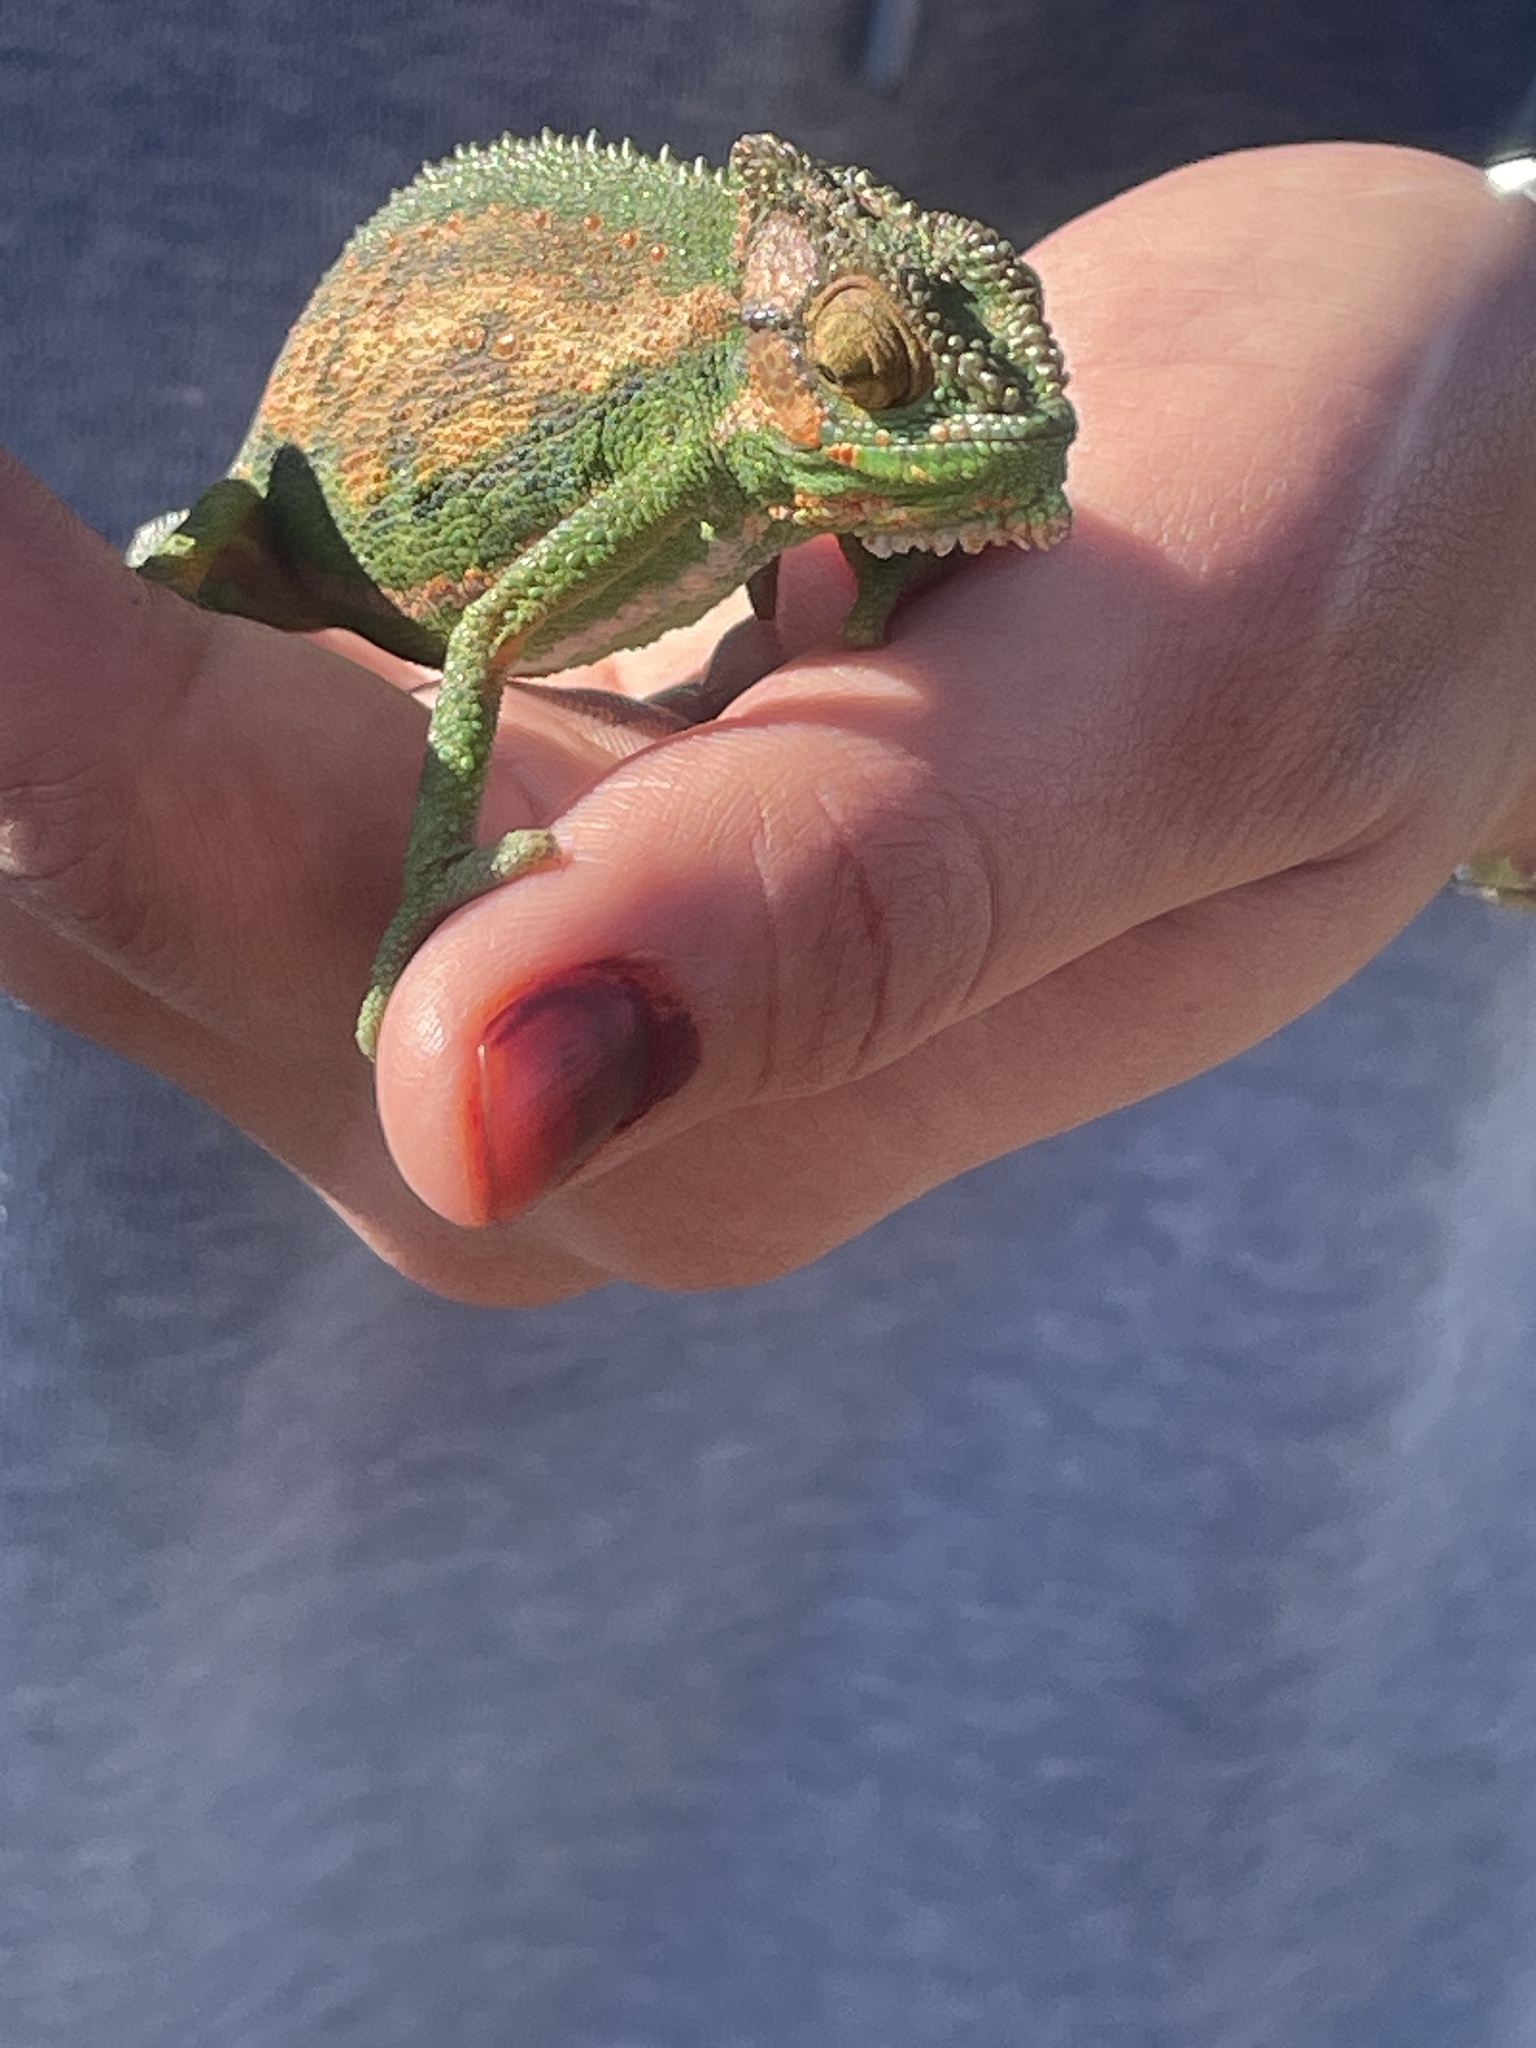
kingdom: Animalia
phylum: Chordata
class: Squamata
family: Chamaeleonidae
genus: Bradypodion
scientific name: Bradypodion pumilum
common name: Cape dwarf chameleon
